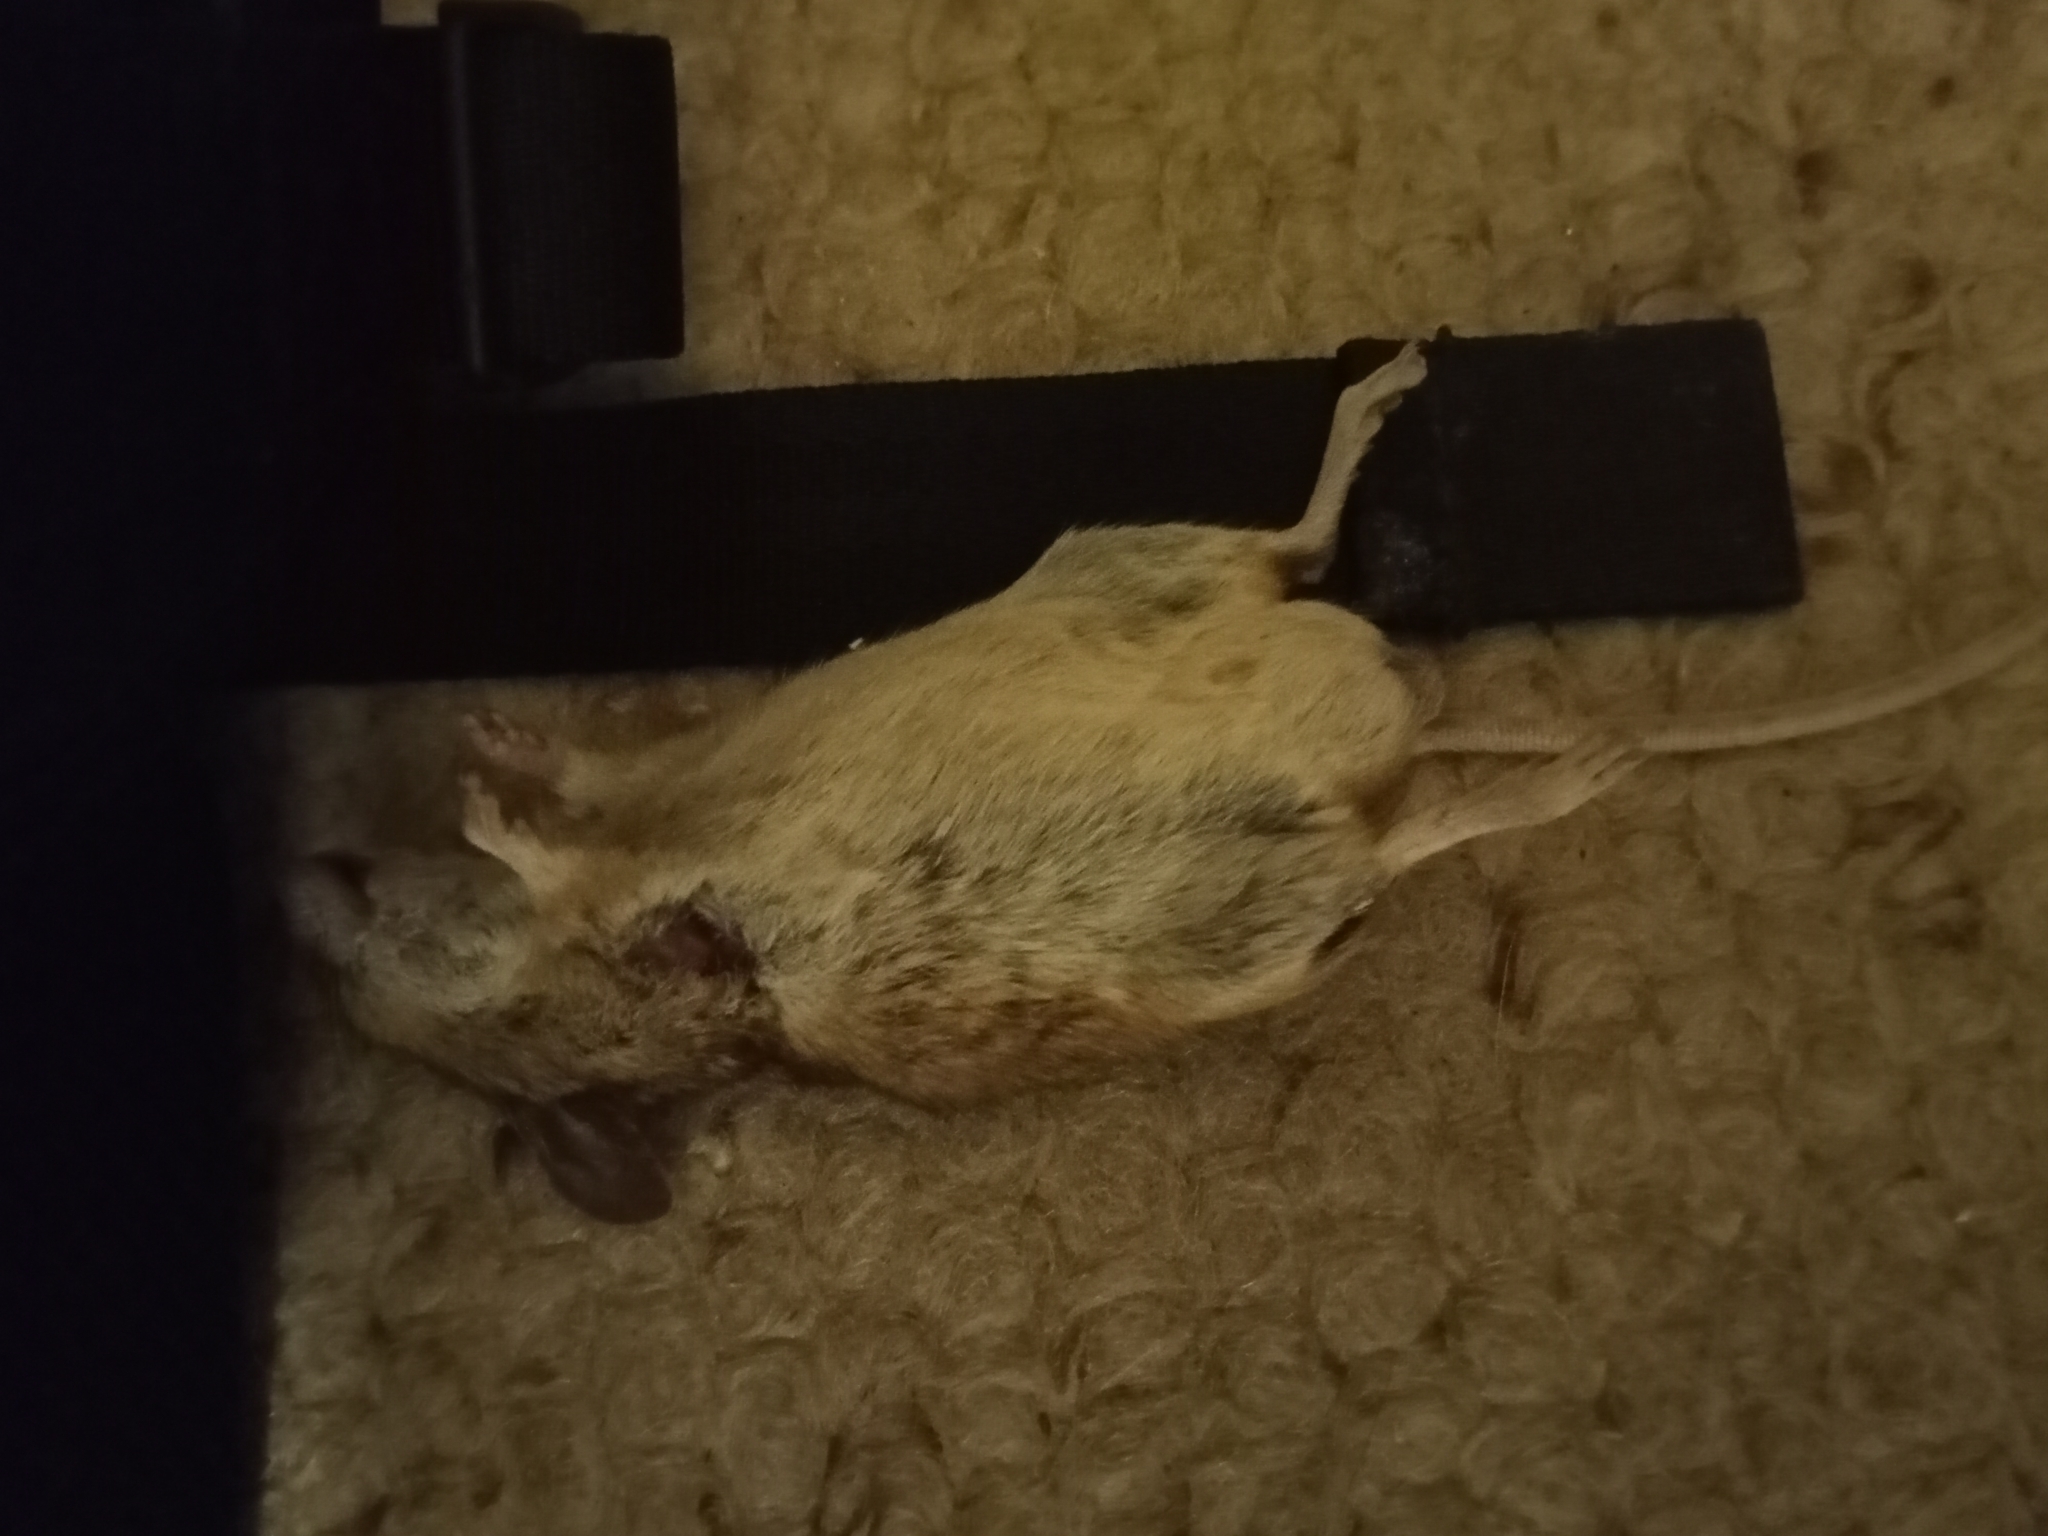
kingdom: Animalia
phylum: Chordata
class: Mammalia
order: Rodentia
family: Muridae
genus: Mus
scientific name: Mus musculus
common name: House mouse
